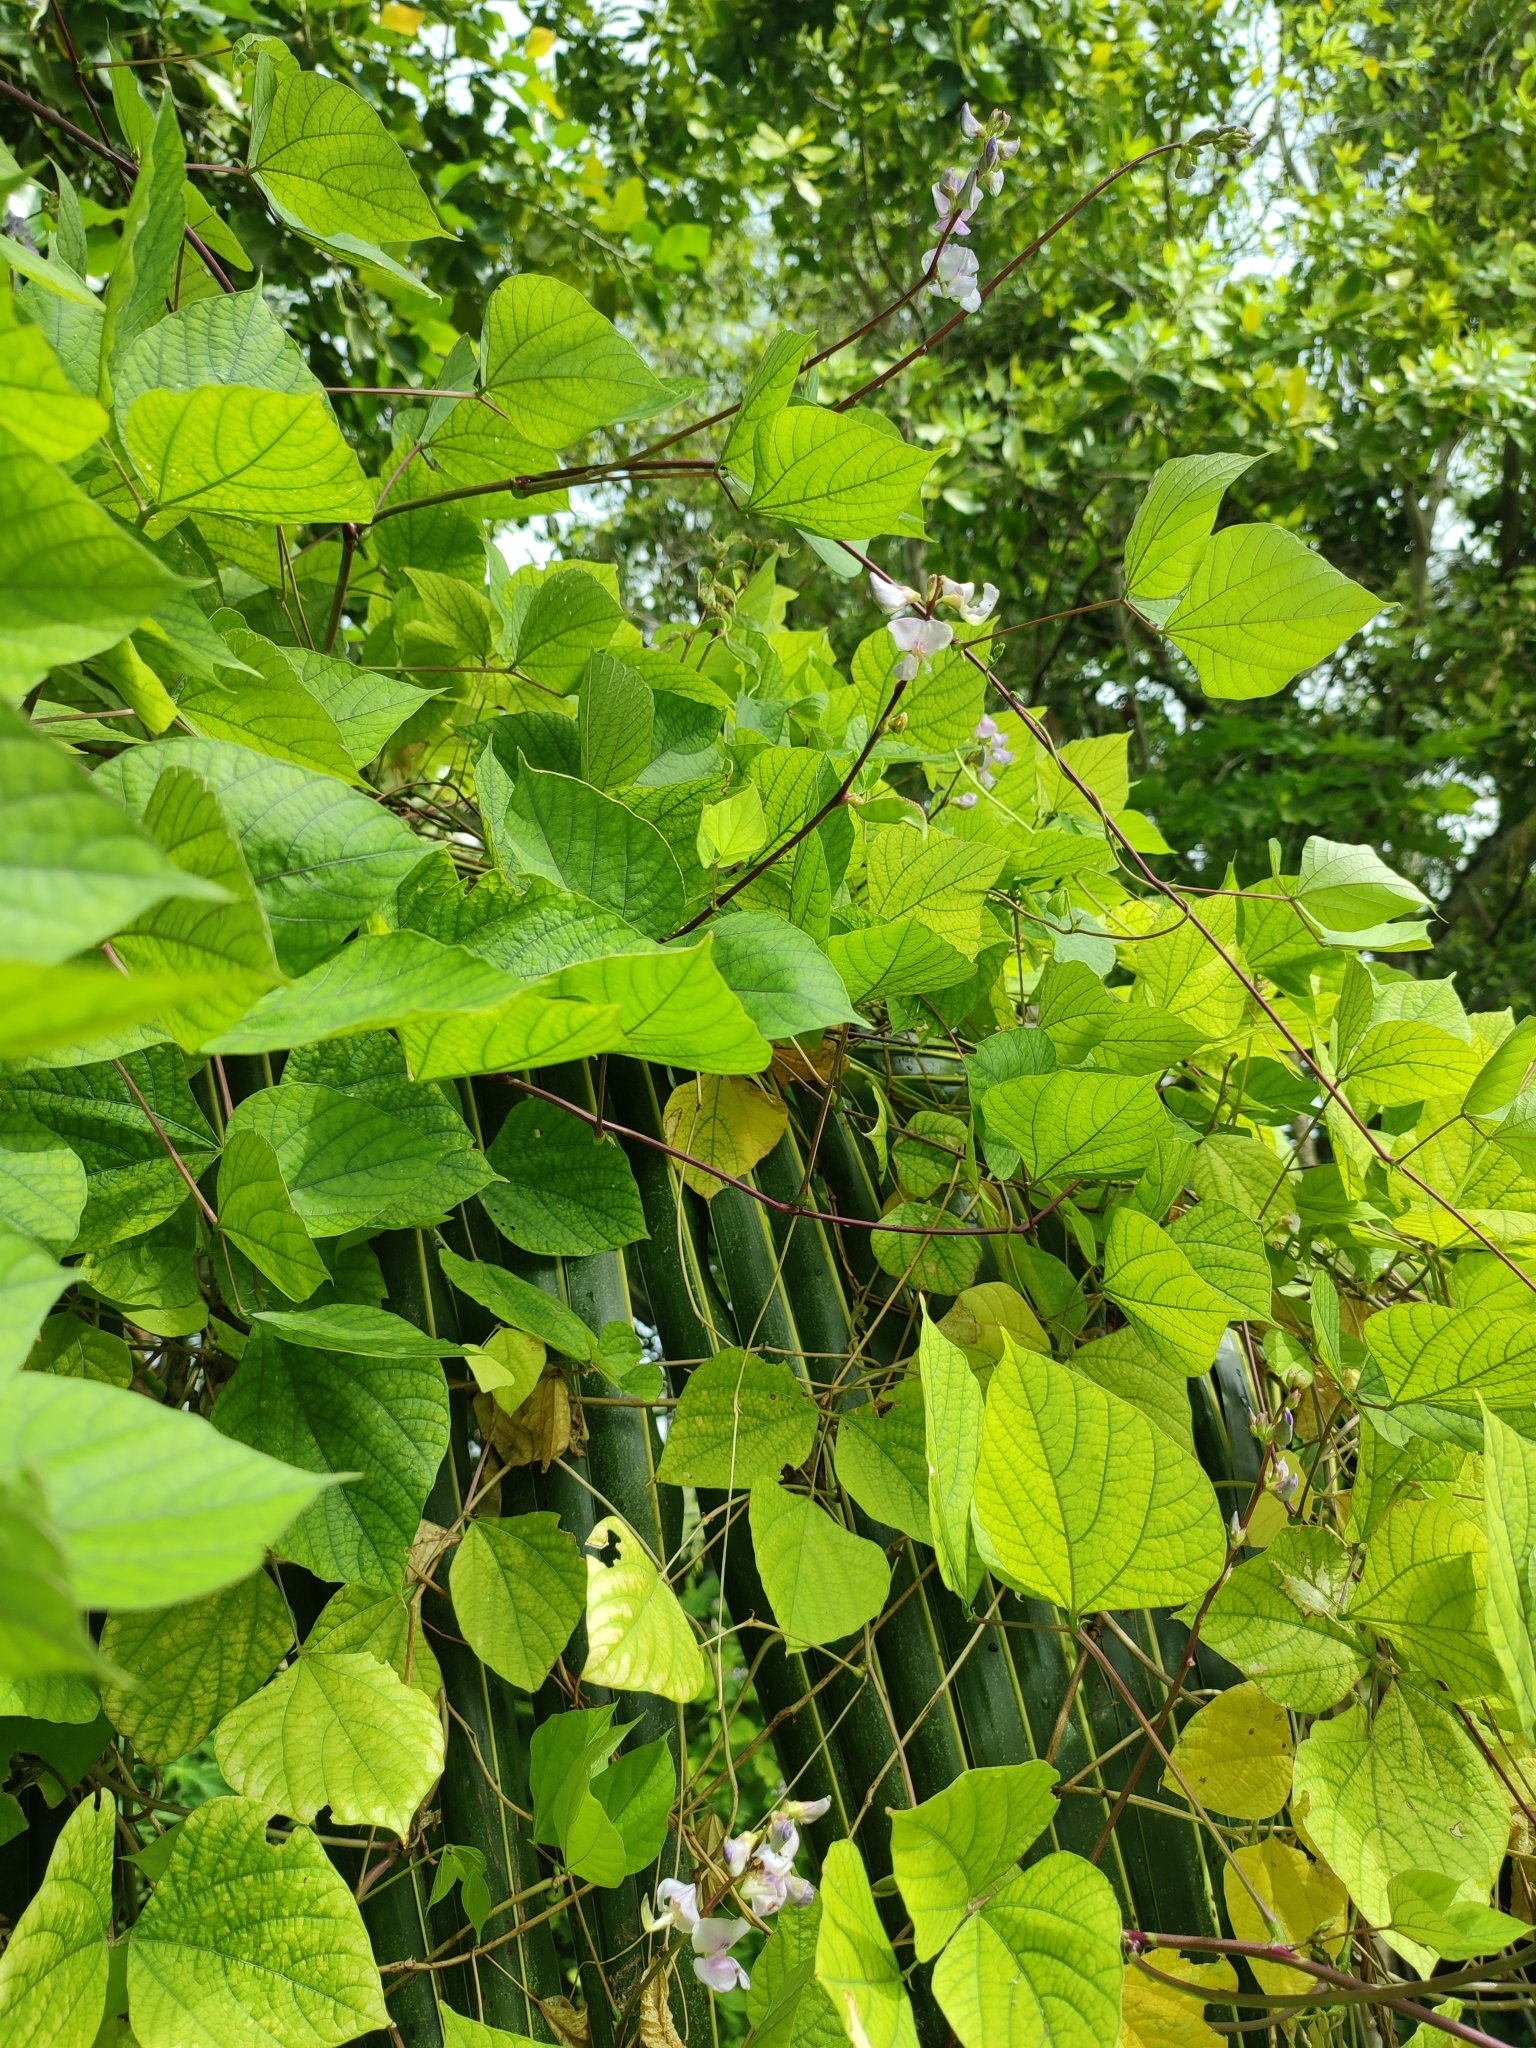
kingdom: Plantae
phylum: Tracheophyta
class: Magnoliopsida
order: Fabales
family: Fabaceae
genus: Lablab
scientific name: Lablab purpureus
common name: Lablab-bean
